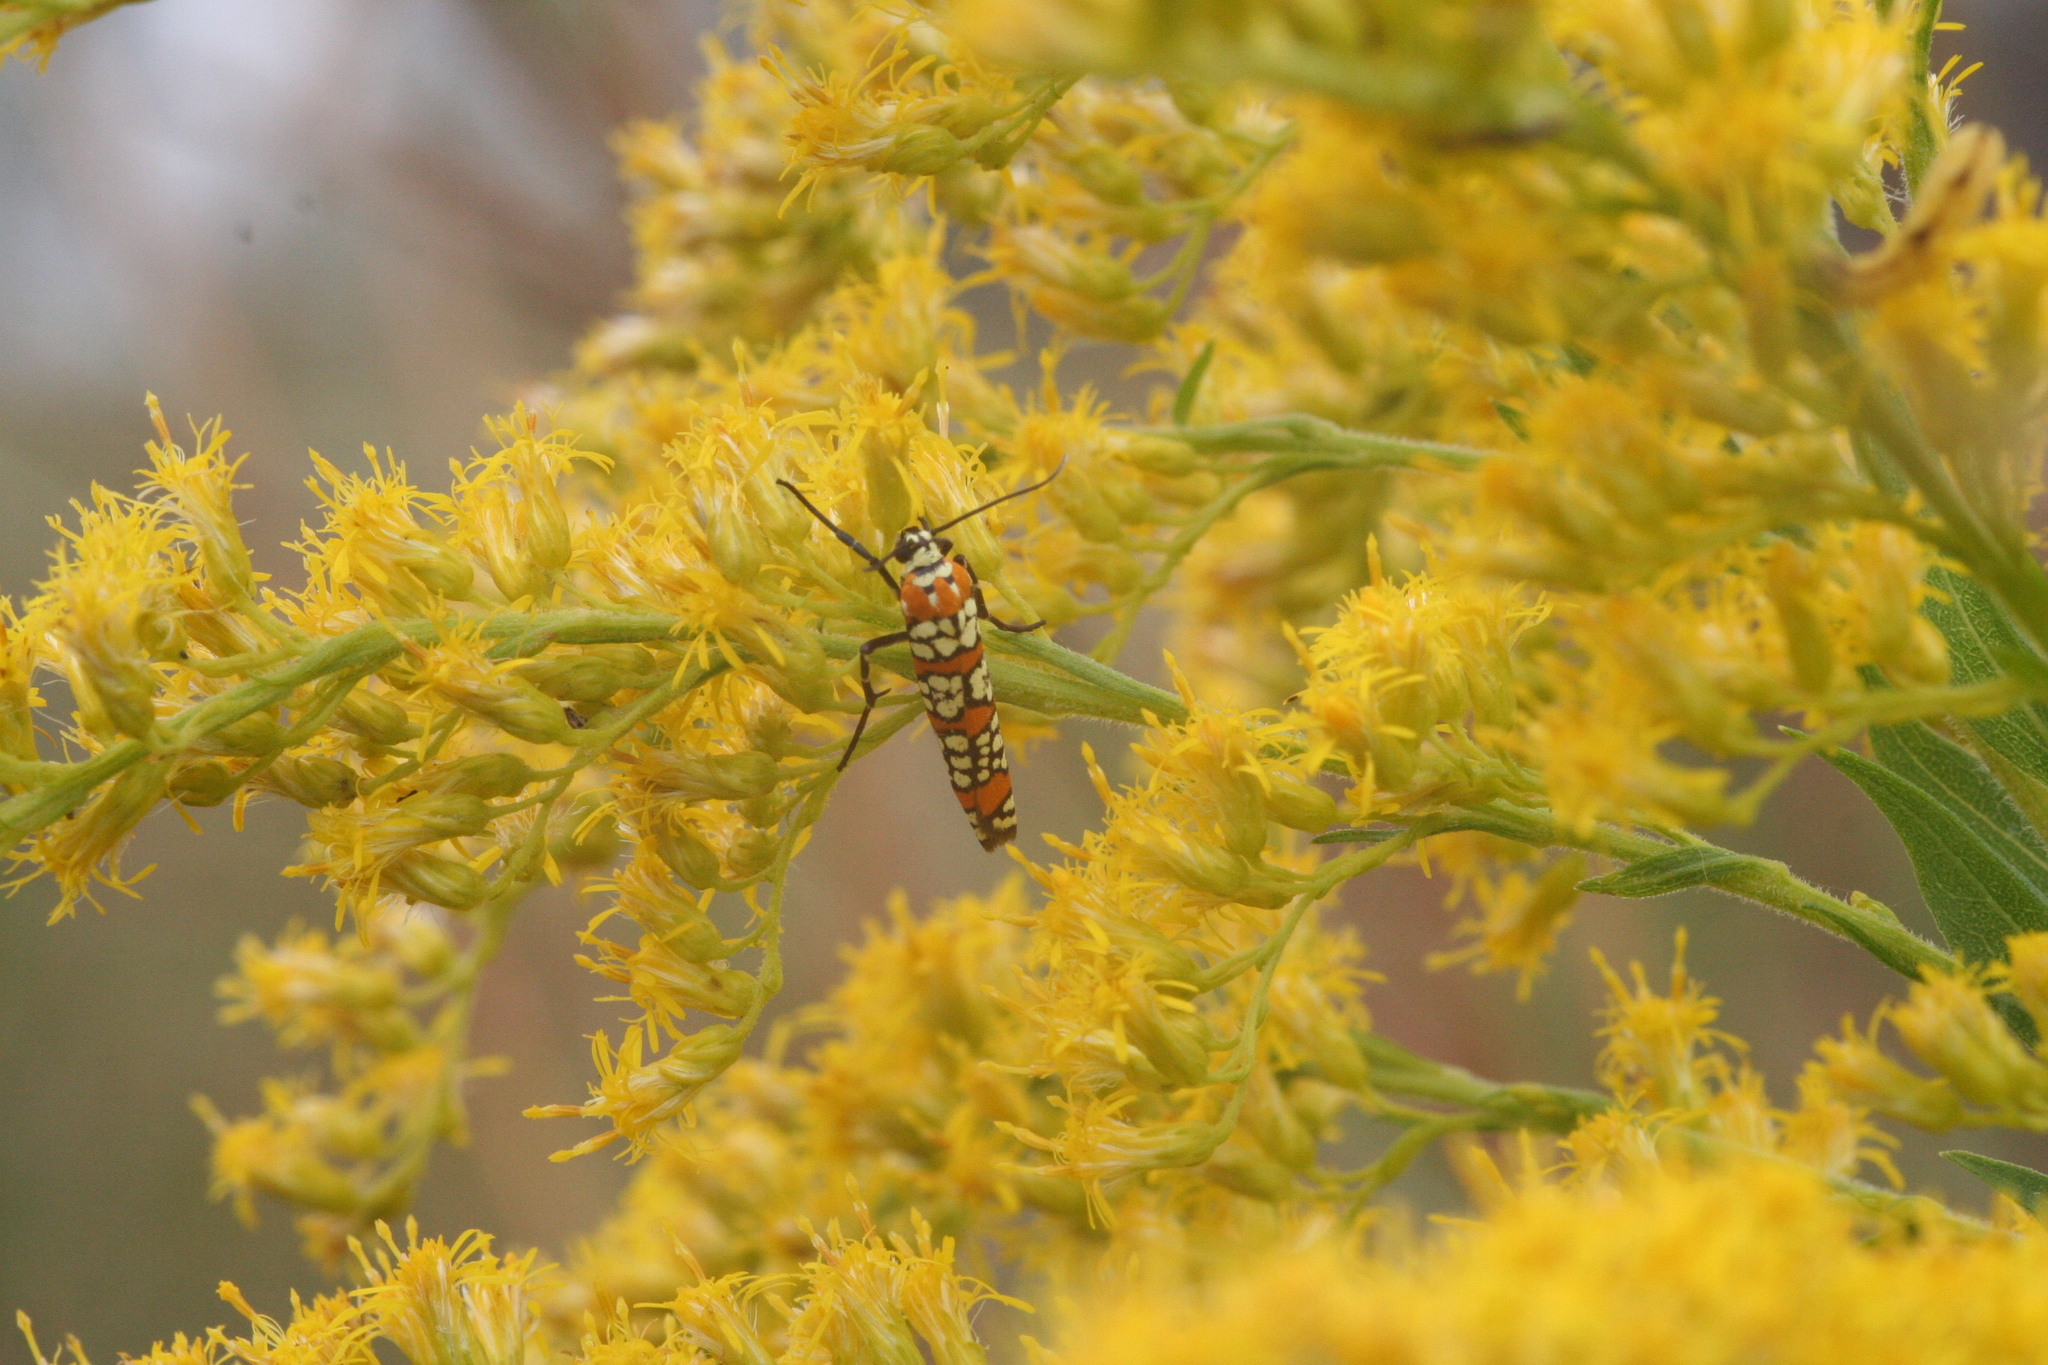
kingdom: Animalia
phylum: Arthropoda
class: Insecta
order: Lepidoptera
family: Attevidae
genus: Atteva
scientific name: Atteva punctella
